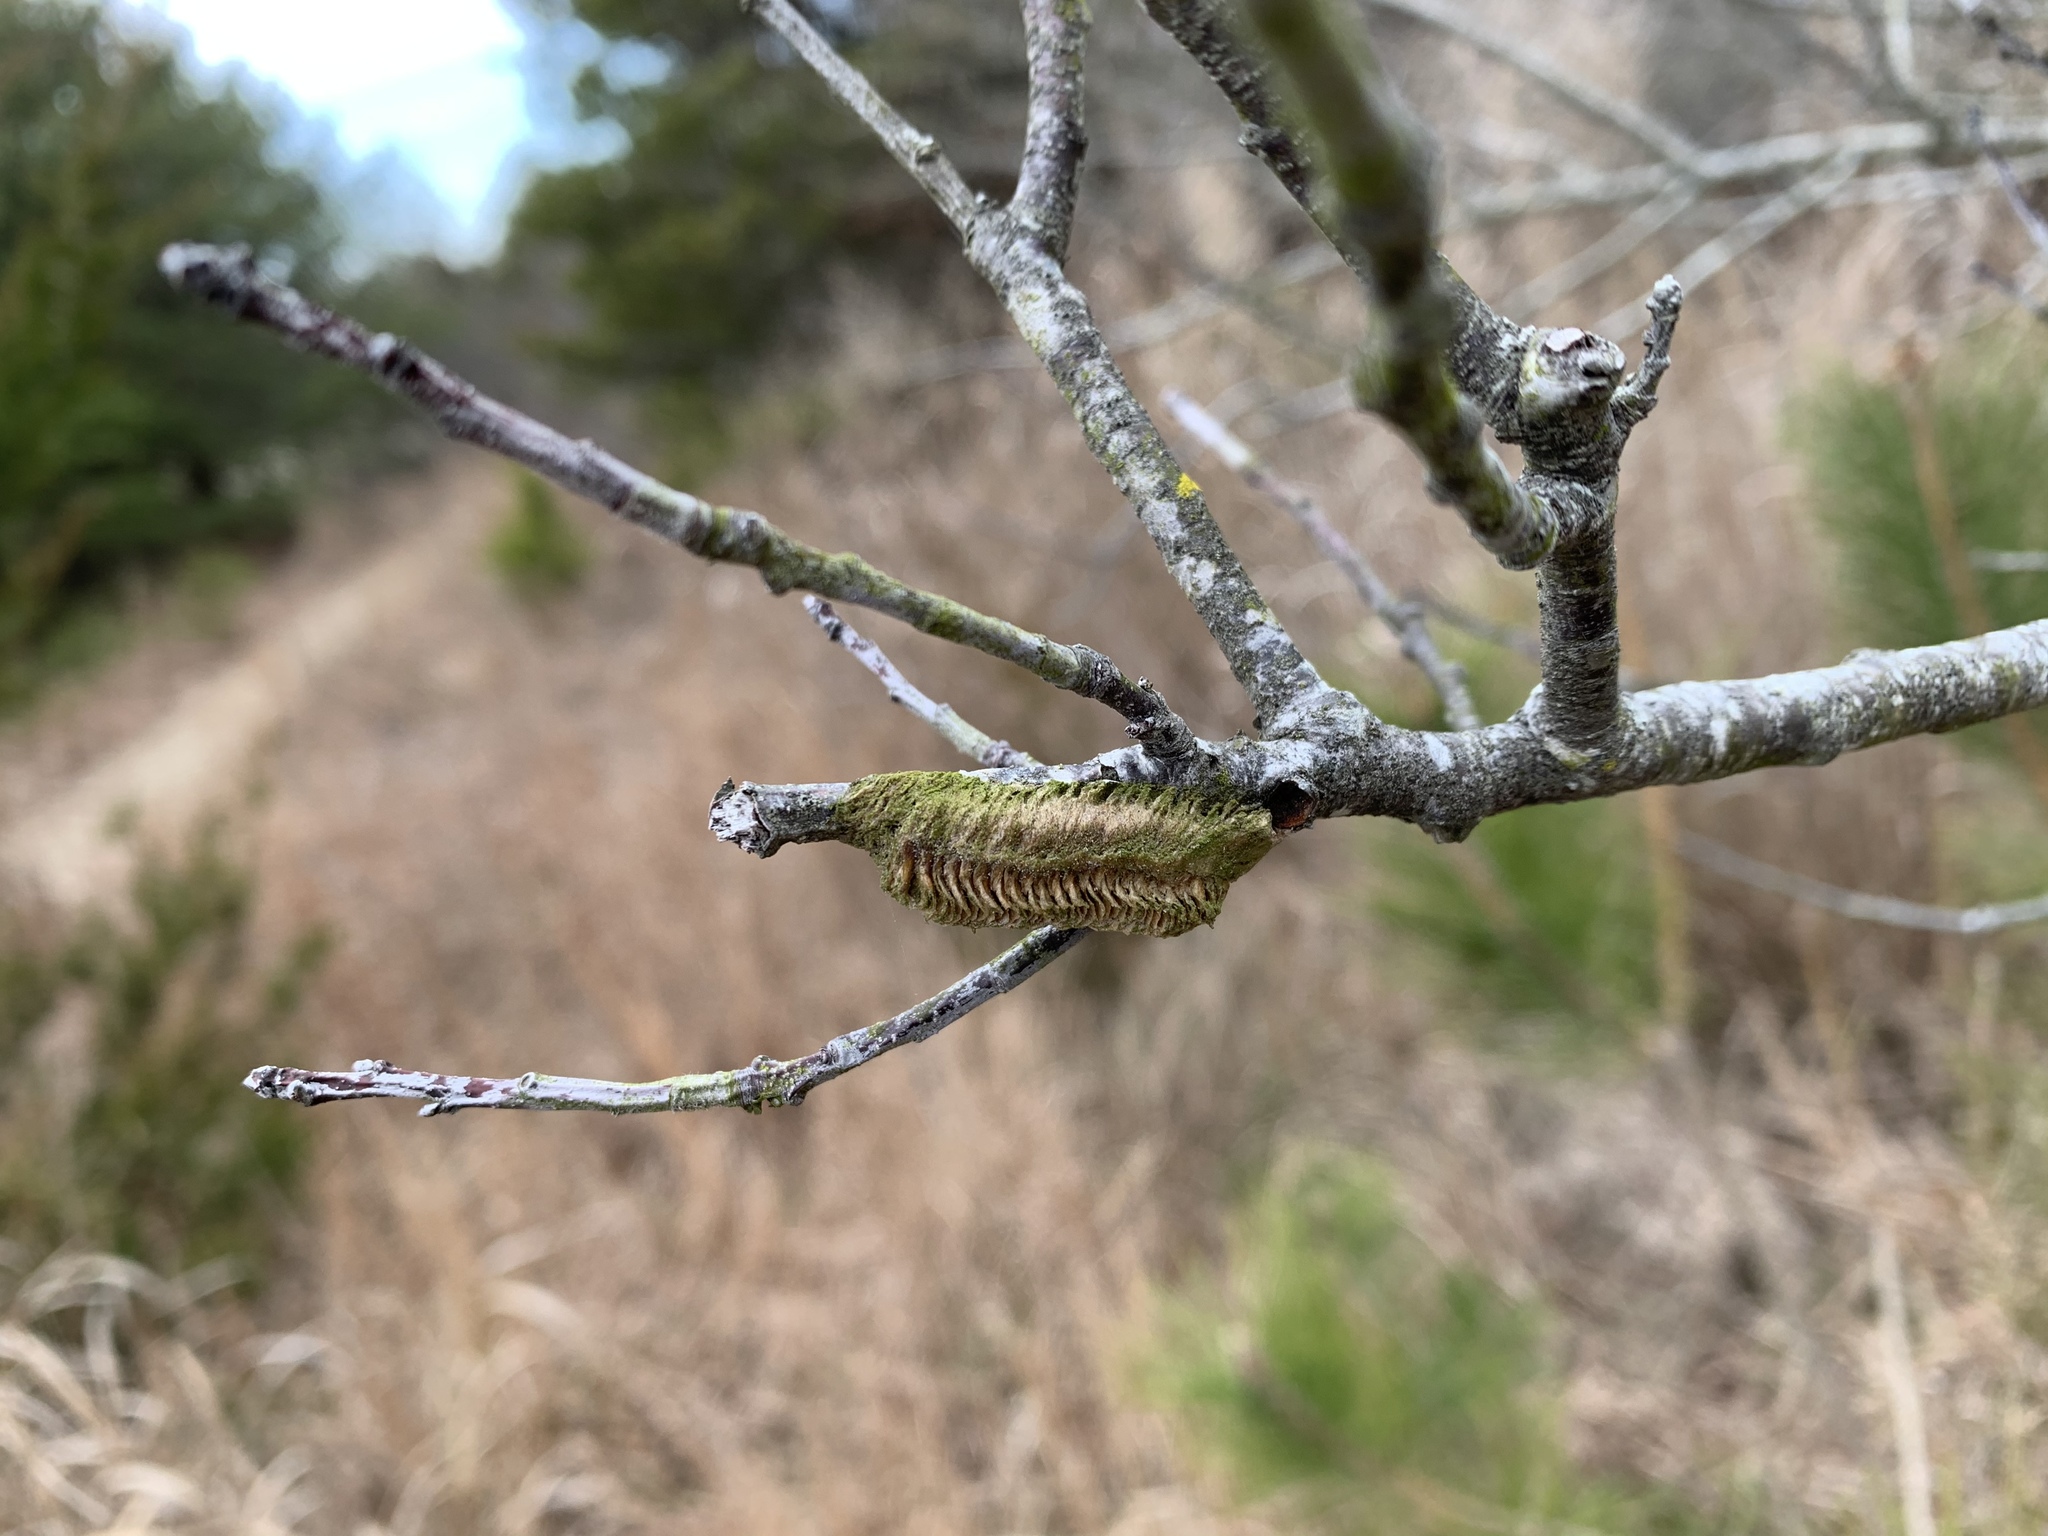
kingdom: Animalia
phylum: Arthropoda
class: Insecta
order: Mantodea
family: Mantidae
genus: Tenodera
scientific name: Tenodera angustipennis
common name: Asian mantis
